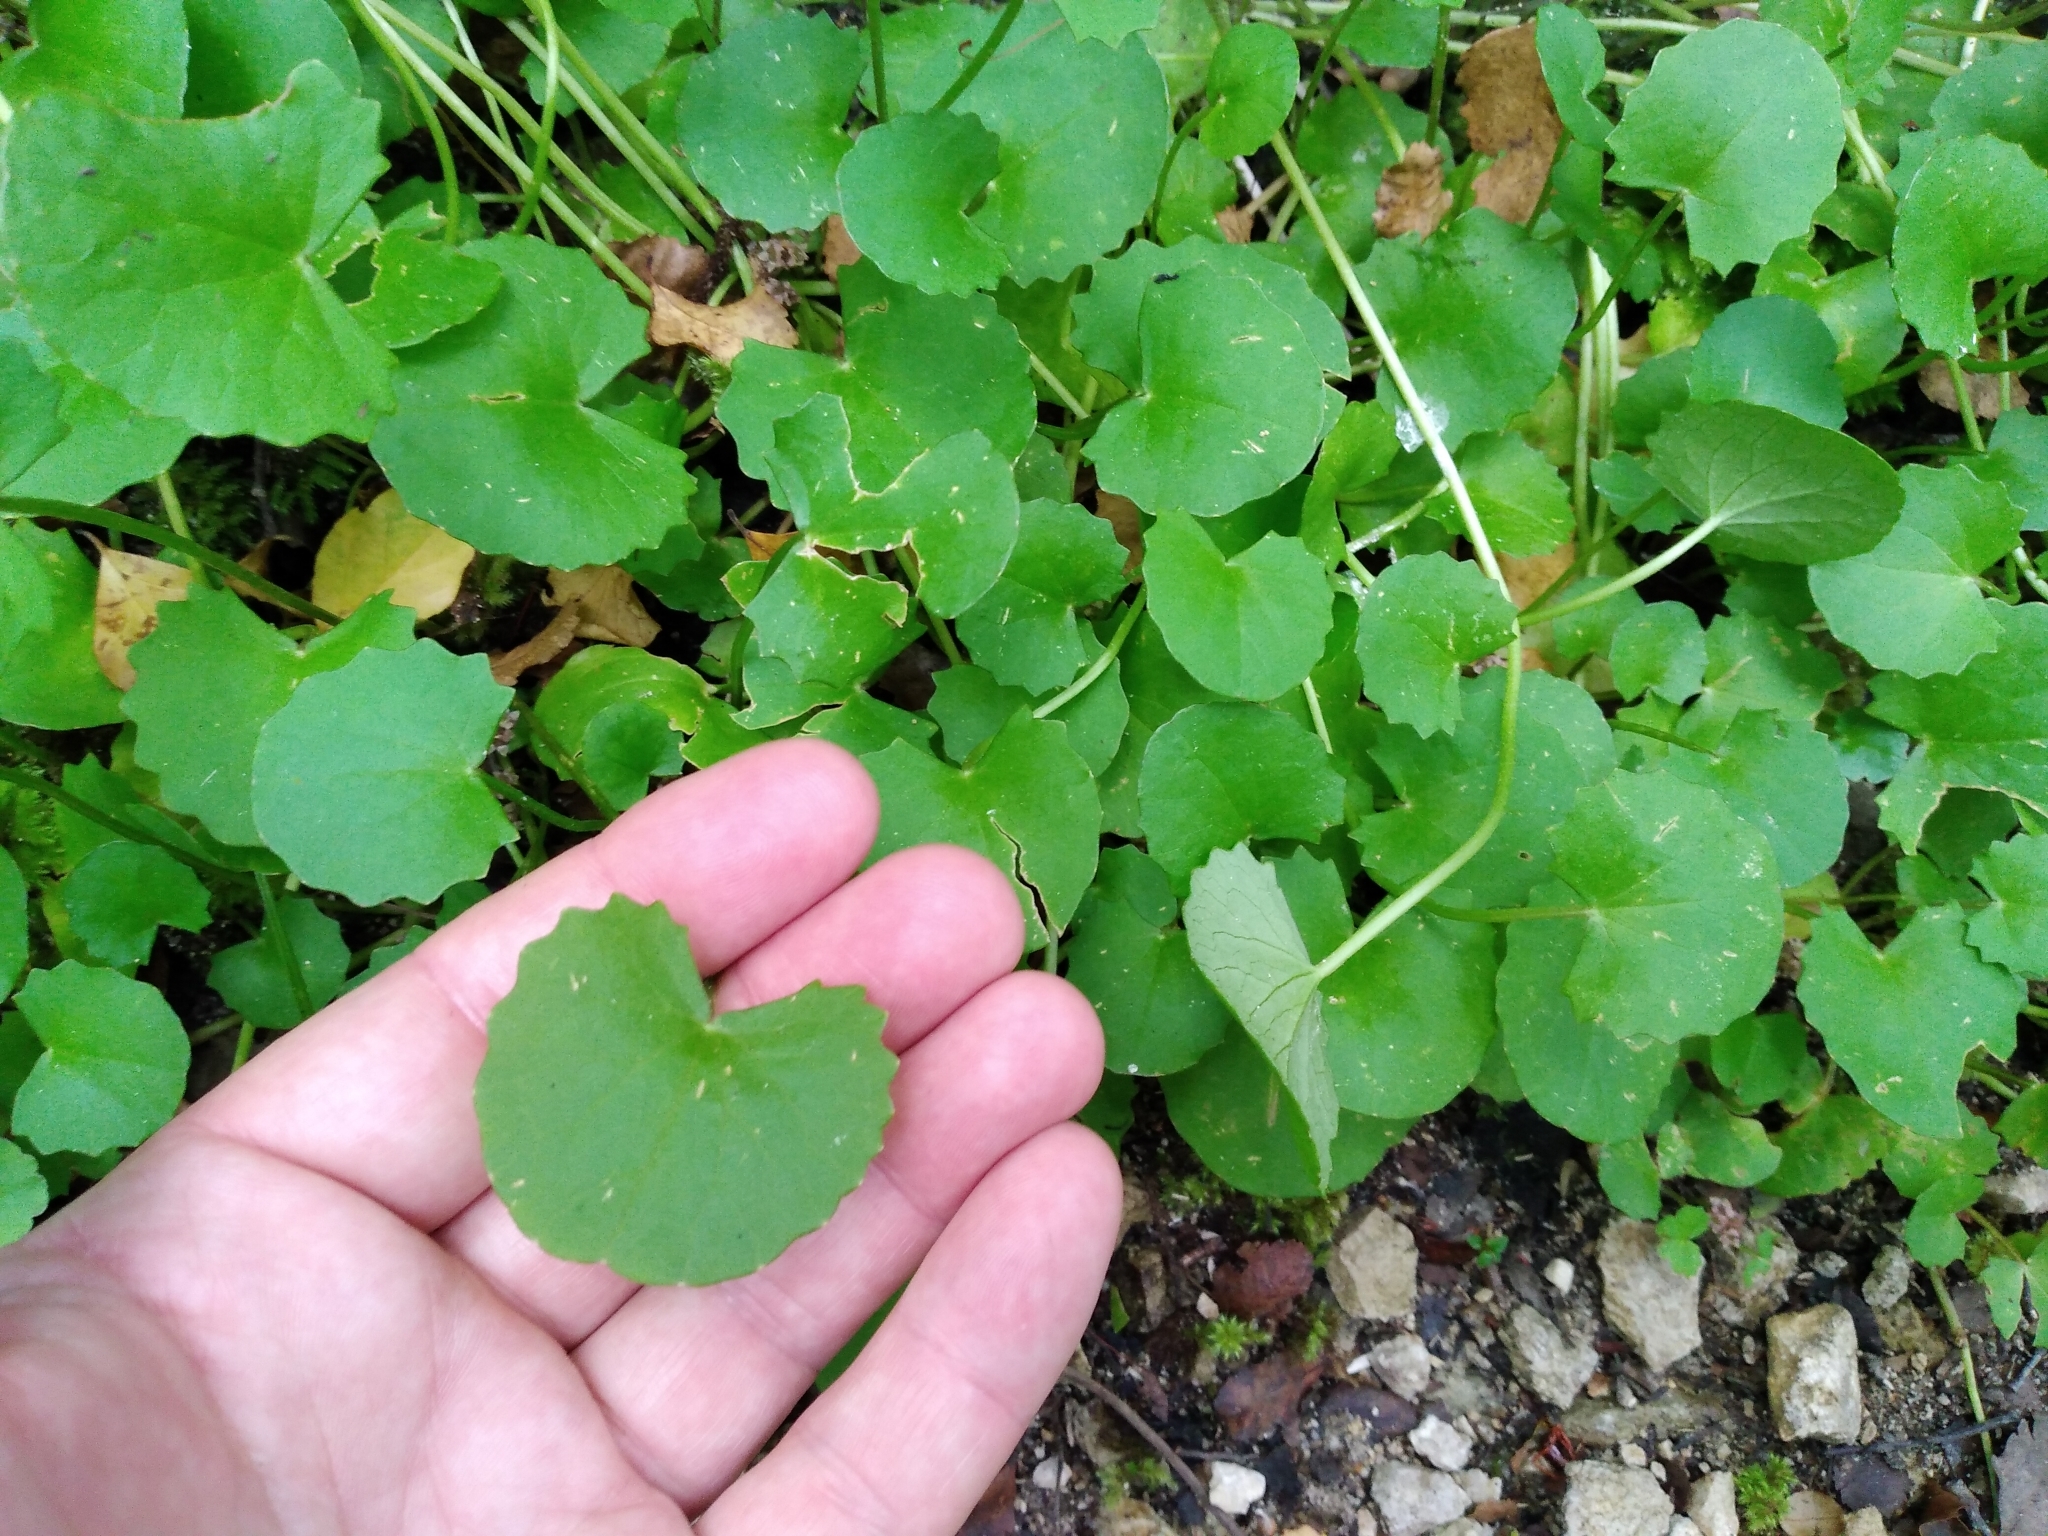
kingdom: Plantae
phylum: Tracheophyta
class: Magnoliopsida
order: Apiales
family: Apiaceae
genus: Centella
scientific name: Centella uniflora
